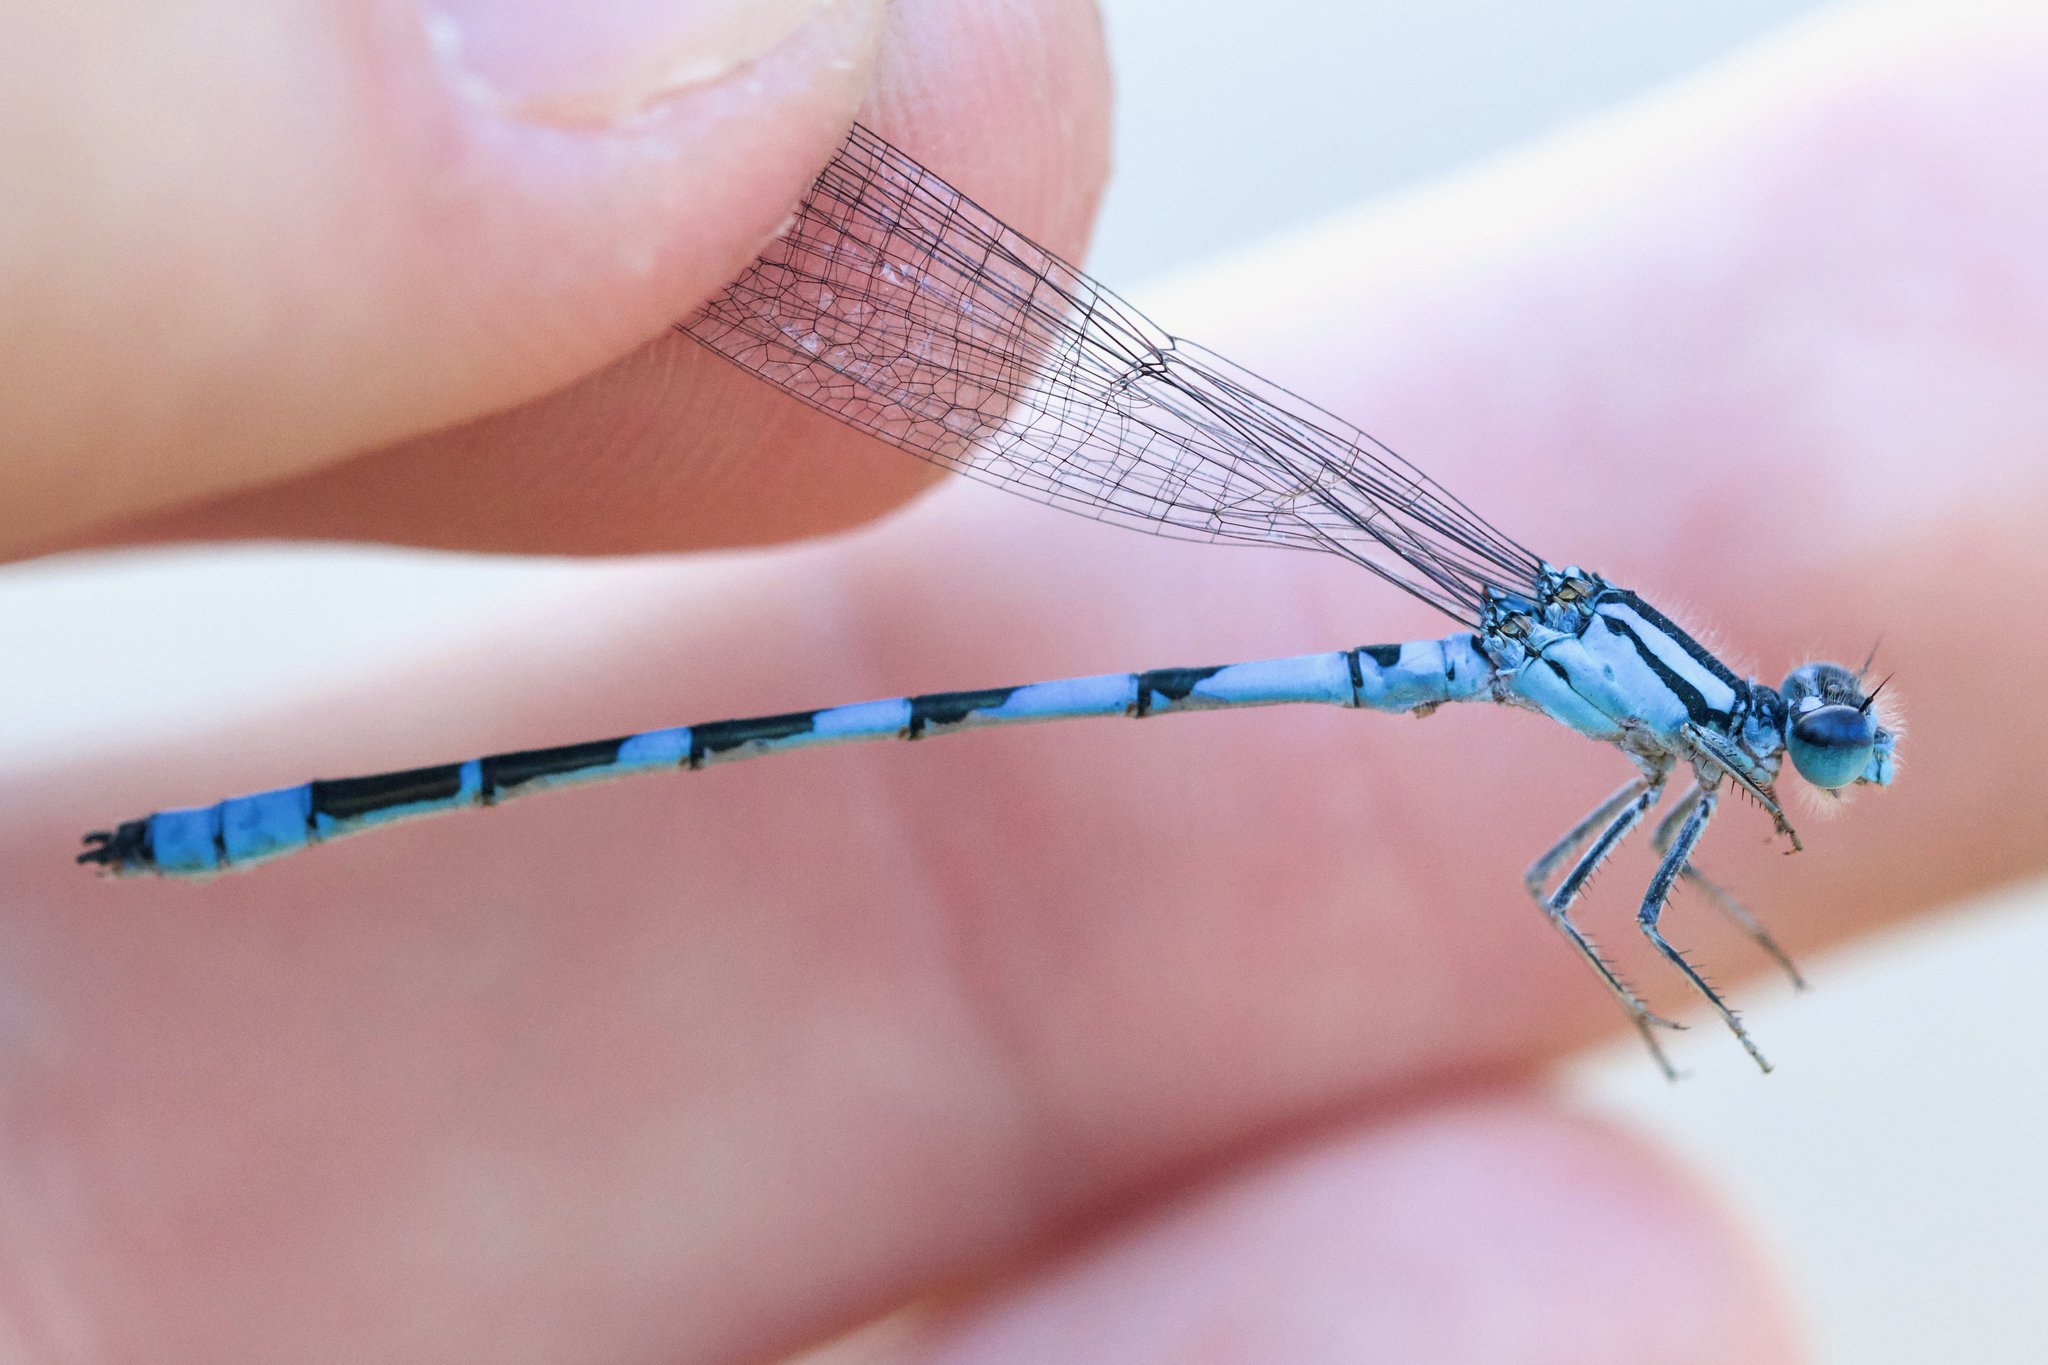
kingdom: Animalia
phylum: Arthropoda
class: Insecta
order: Odonata
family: Coenagrionidae
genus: Enallagma
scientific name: Enallagma anna
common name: River bluet
